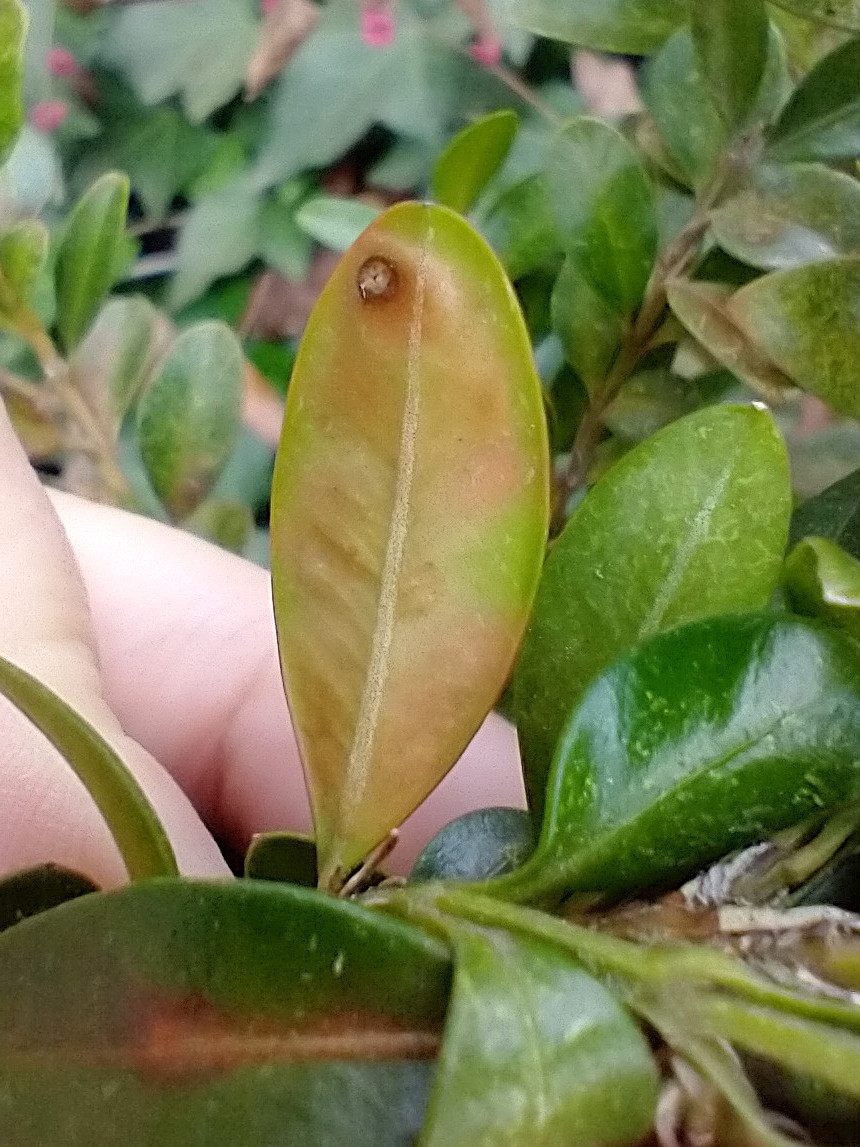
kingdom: Animalia
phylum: Arthropoda
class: Insecta
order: Diptera
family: Cecidomyiidae
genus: Monarthropalpus
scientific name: Monarthropalpus flavus
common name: Boxwood leafminer
